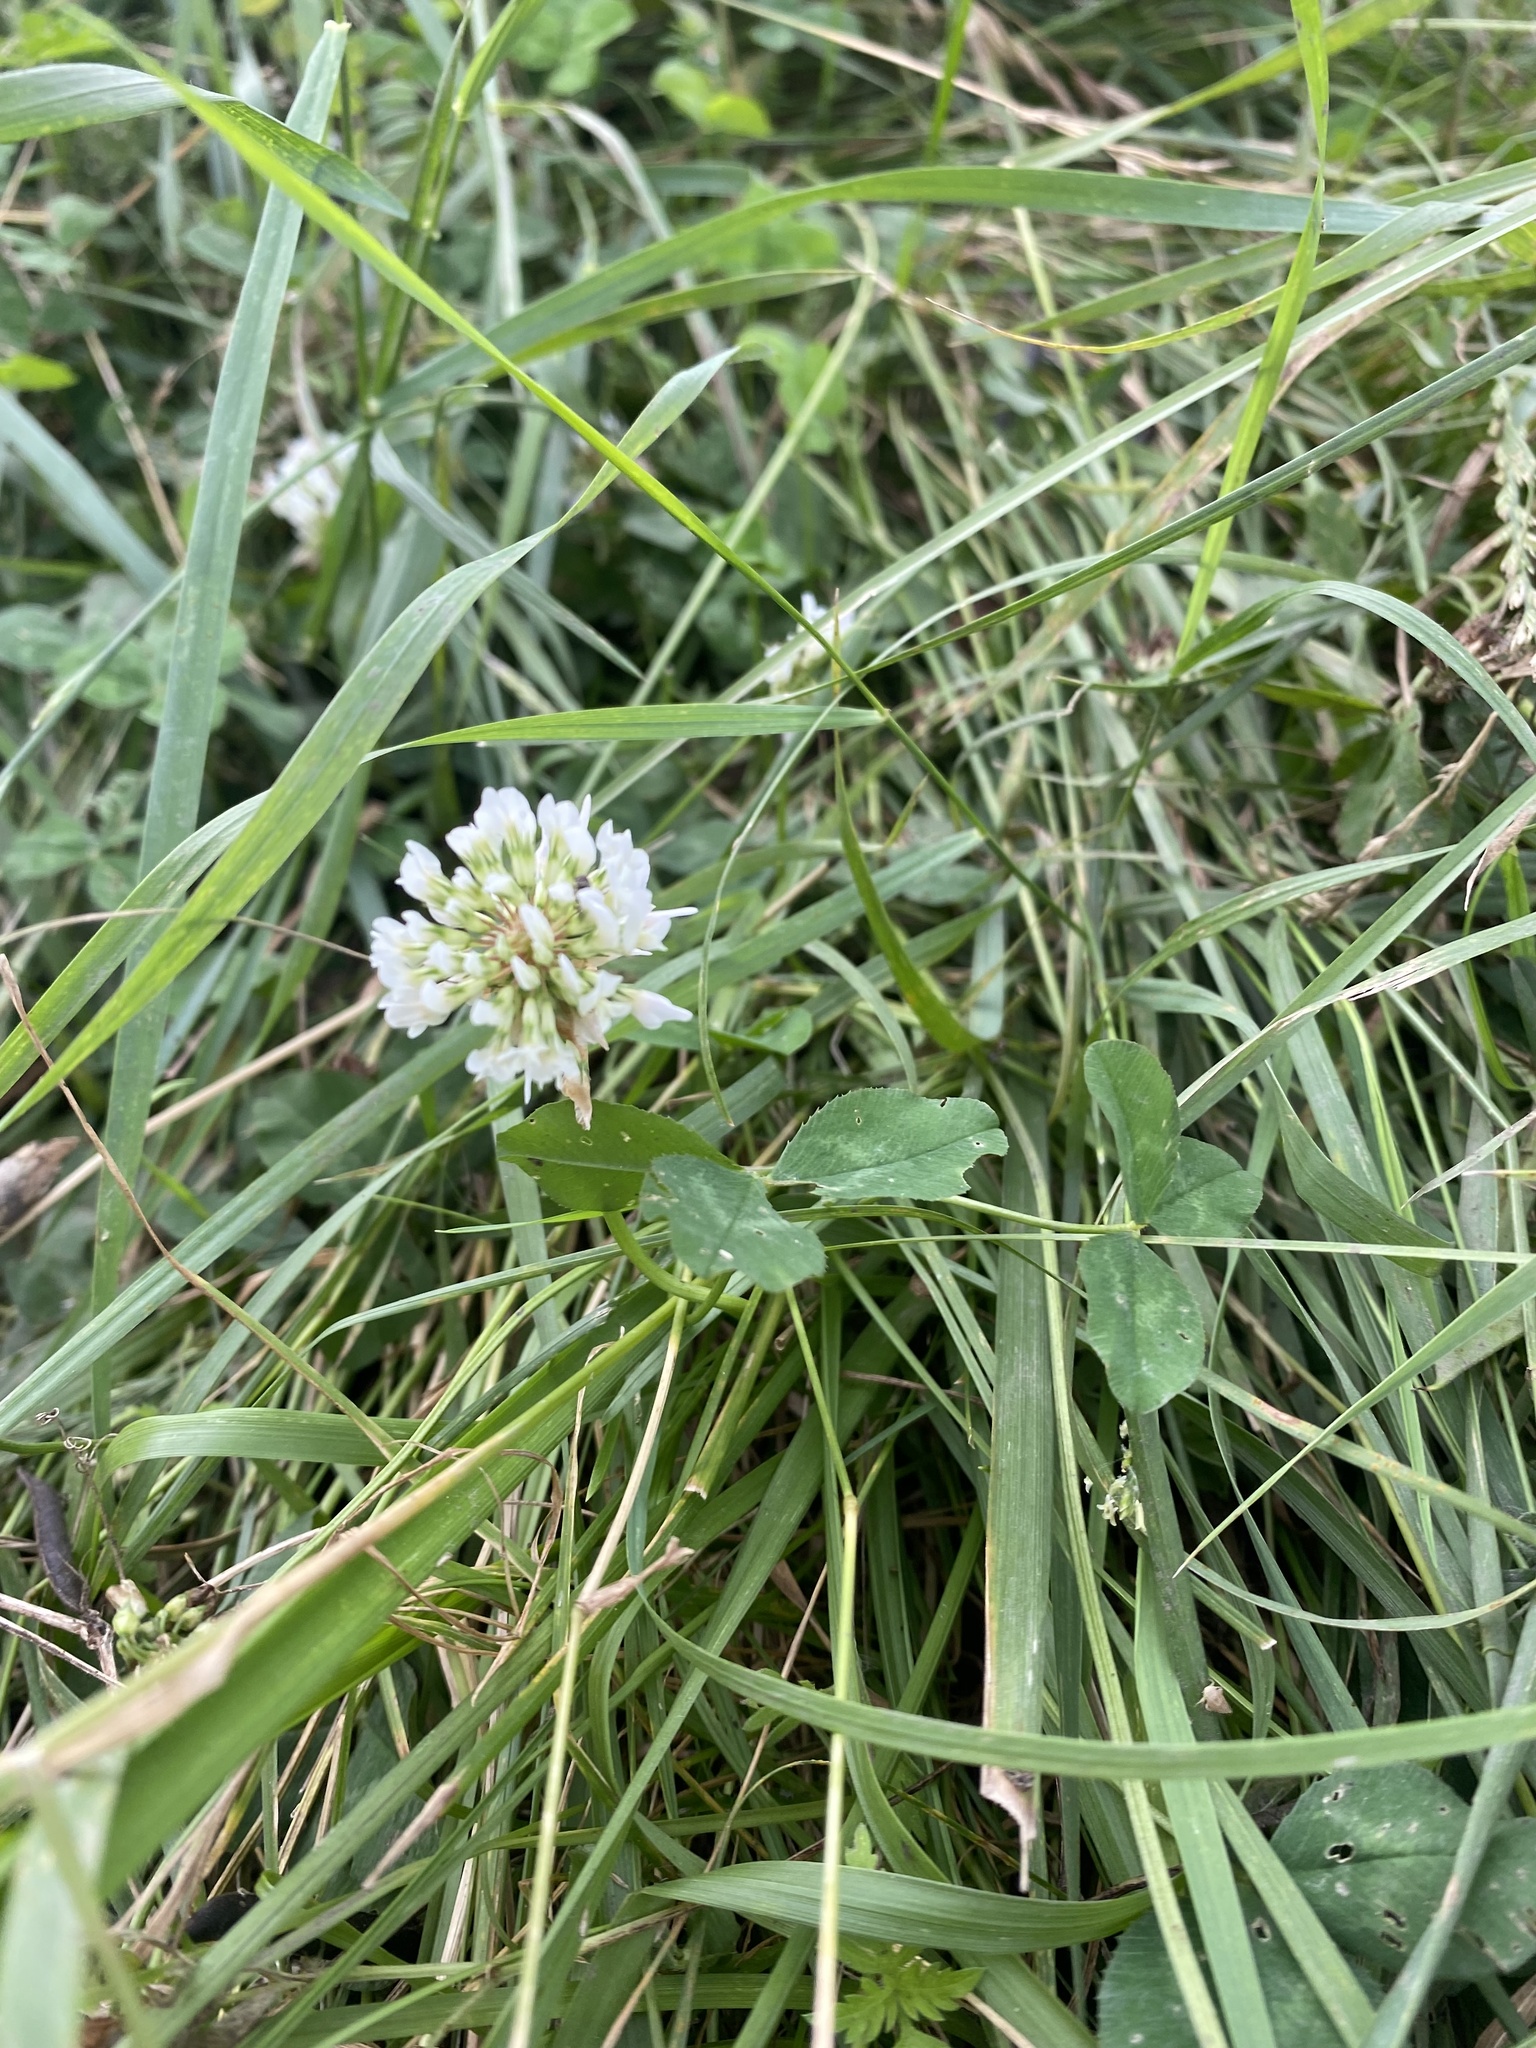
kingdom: Plantae
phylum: Tracheophyta
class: Magnoliopsida
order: Fabales
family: Fabaceae
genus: Trifolium
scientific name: Trifolium repens
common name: White clover
